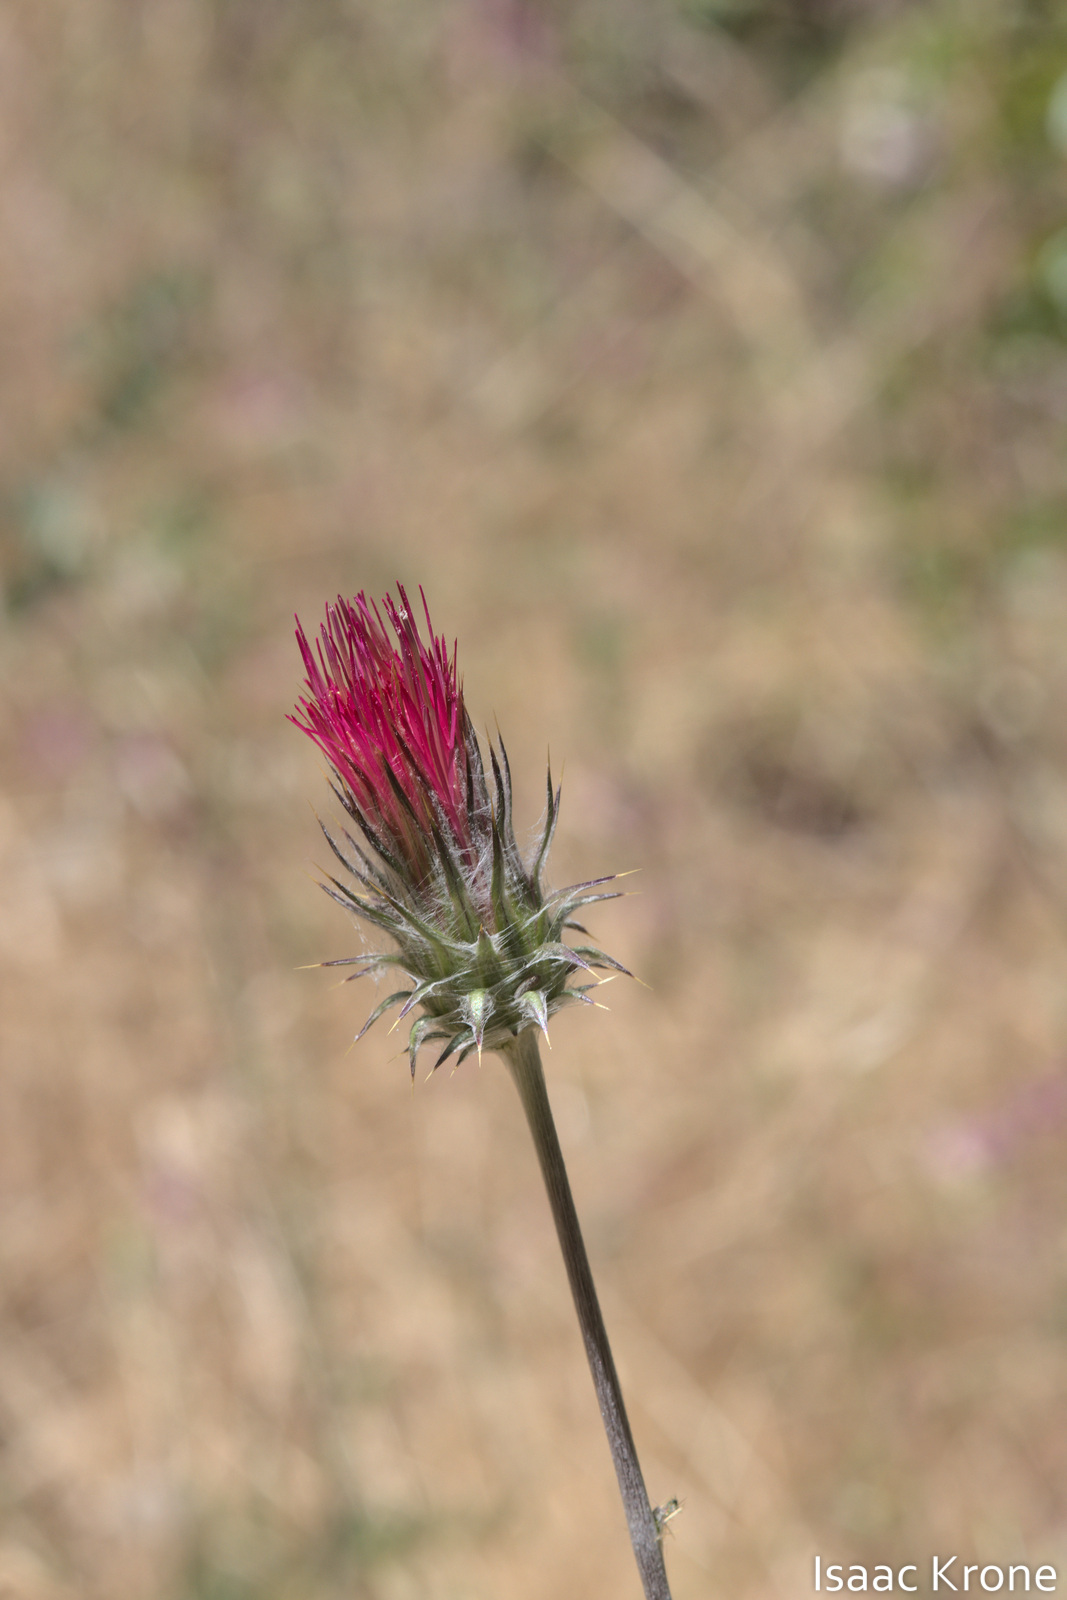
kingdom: Plantae
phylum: Tracheophyta
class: Magnoliopsida
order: Asterales
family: Asteraceae
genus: Cirsium
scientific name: Cirsium occidentale
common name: Western thistle
